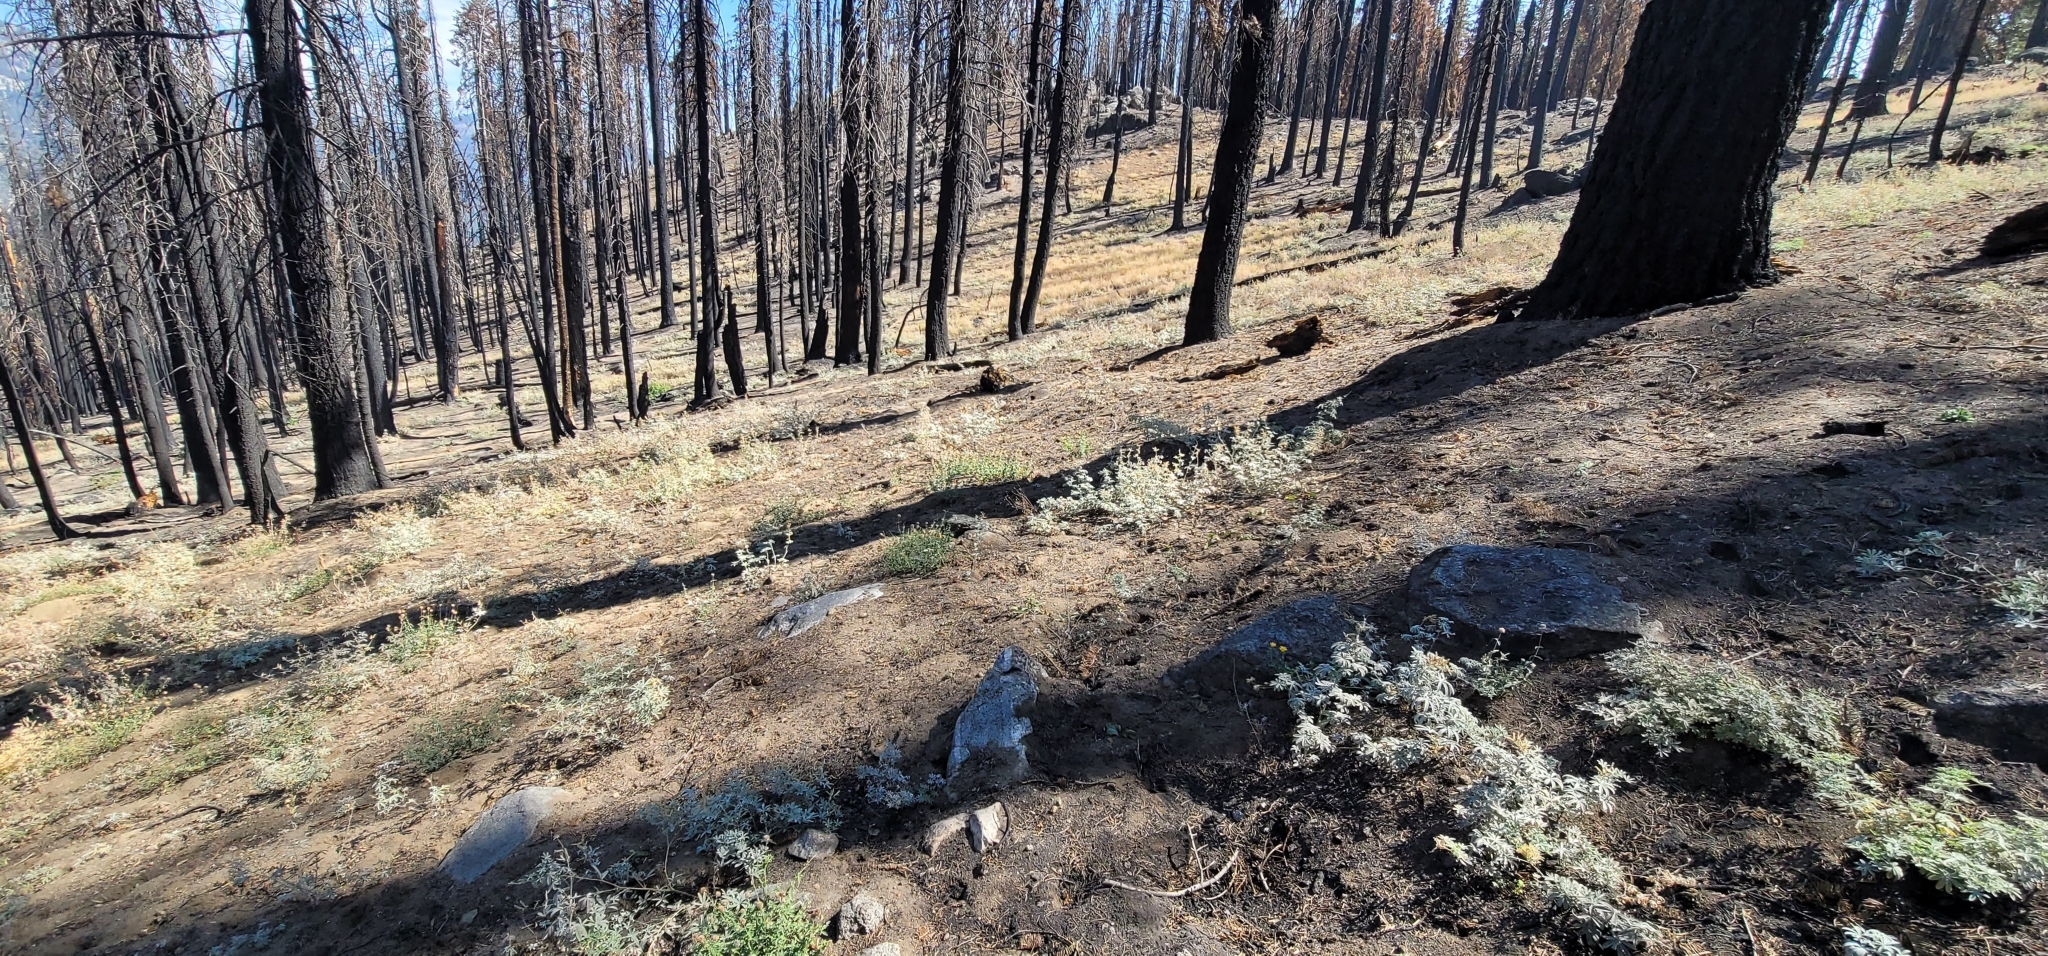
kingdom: Plantae
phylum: Tracheophyta
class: Magnoliopsida
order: Asterales
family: Asteraceae
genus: Hulsea
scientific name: Hulsea brevifolia
